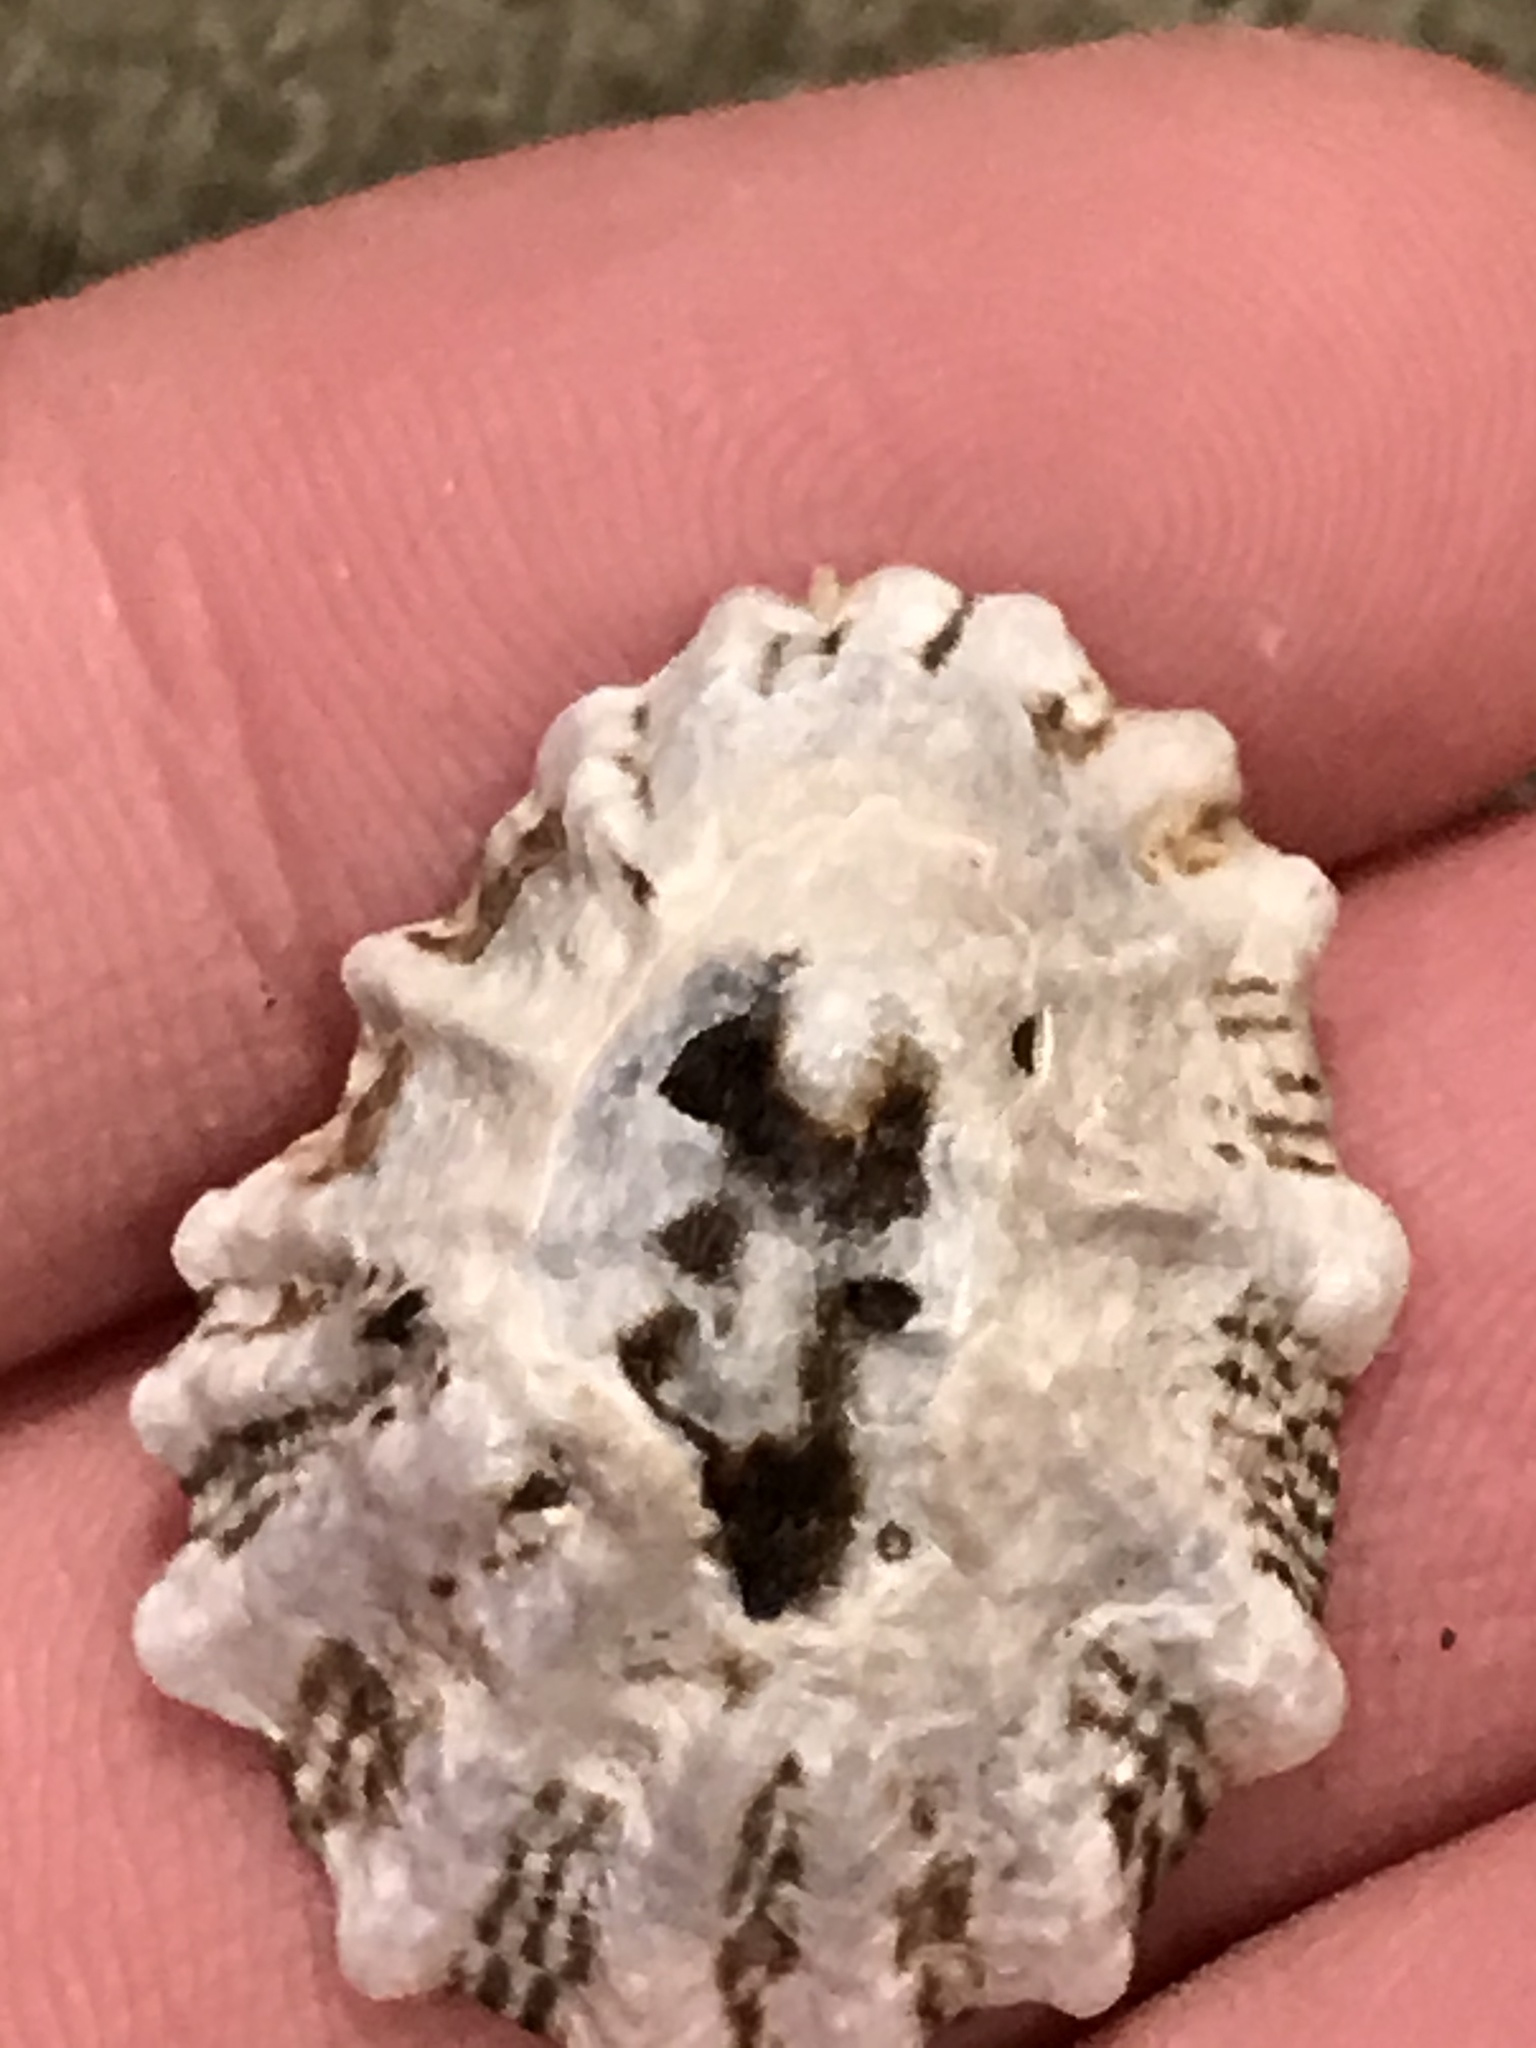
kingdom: Animalia
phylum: Mollusca
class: Gastropoda
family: Lottiidae
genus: Lottia
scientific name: Lottia scabra
